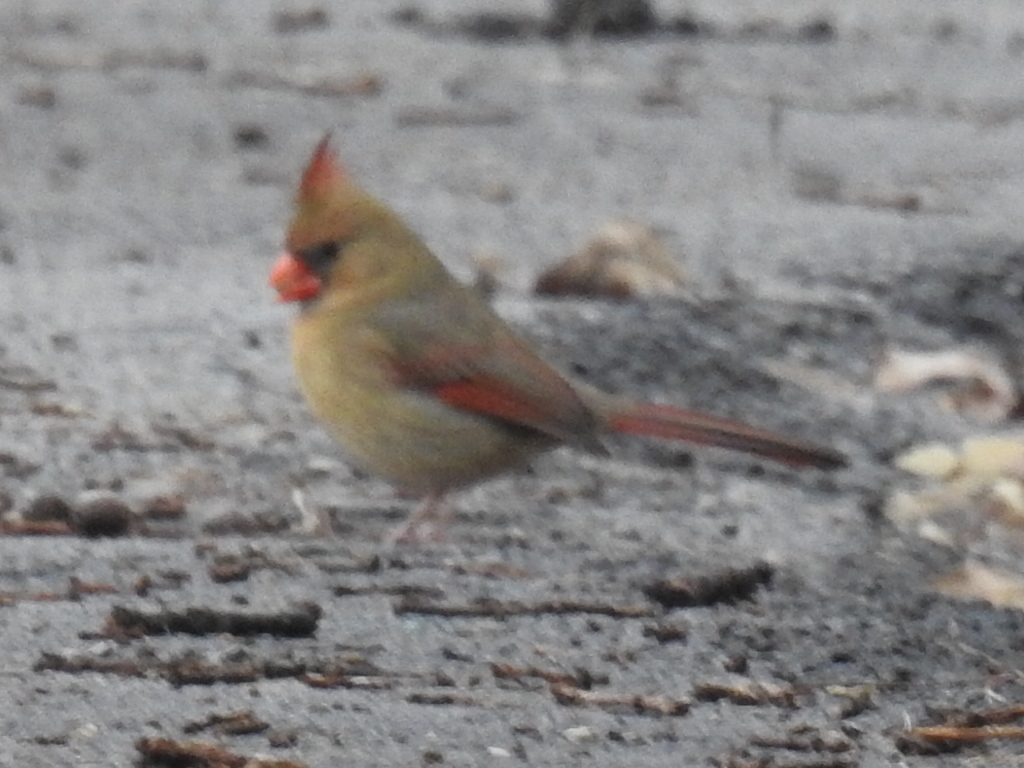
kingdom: Animalia
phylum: Chordata
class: Aves
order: Passeriformes
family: Cardinalidae
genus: Cardinalis
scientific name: Cardinalis cardinalis
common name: Northern cardinal
